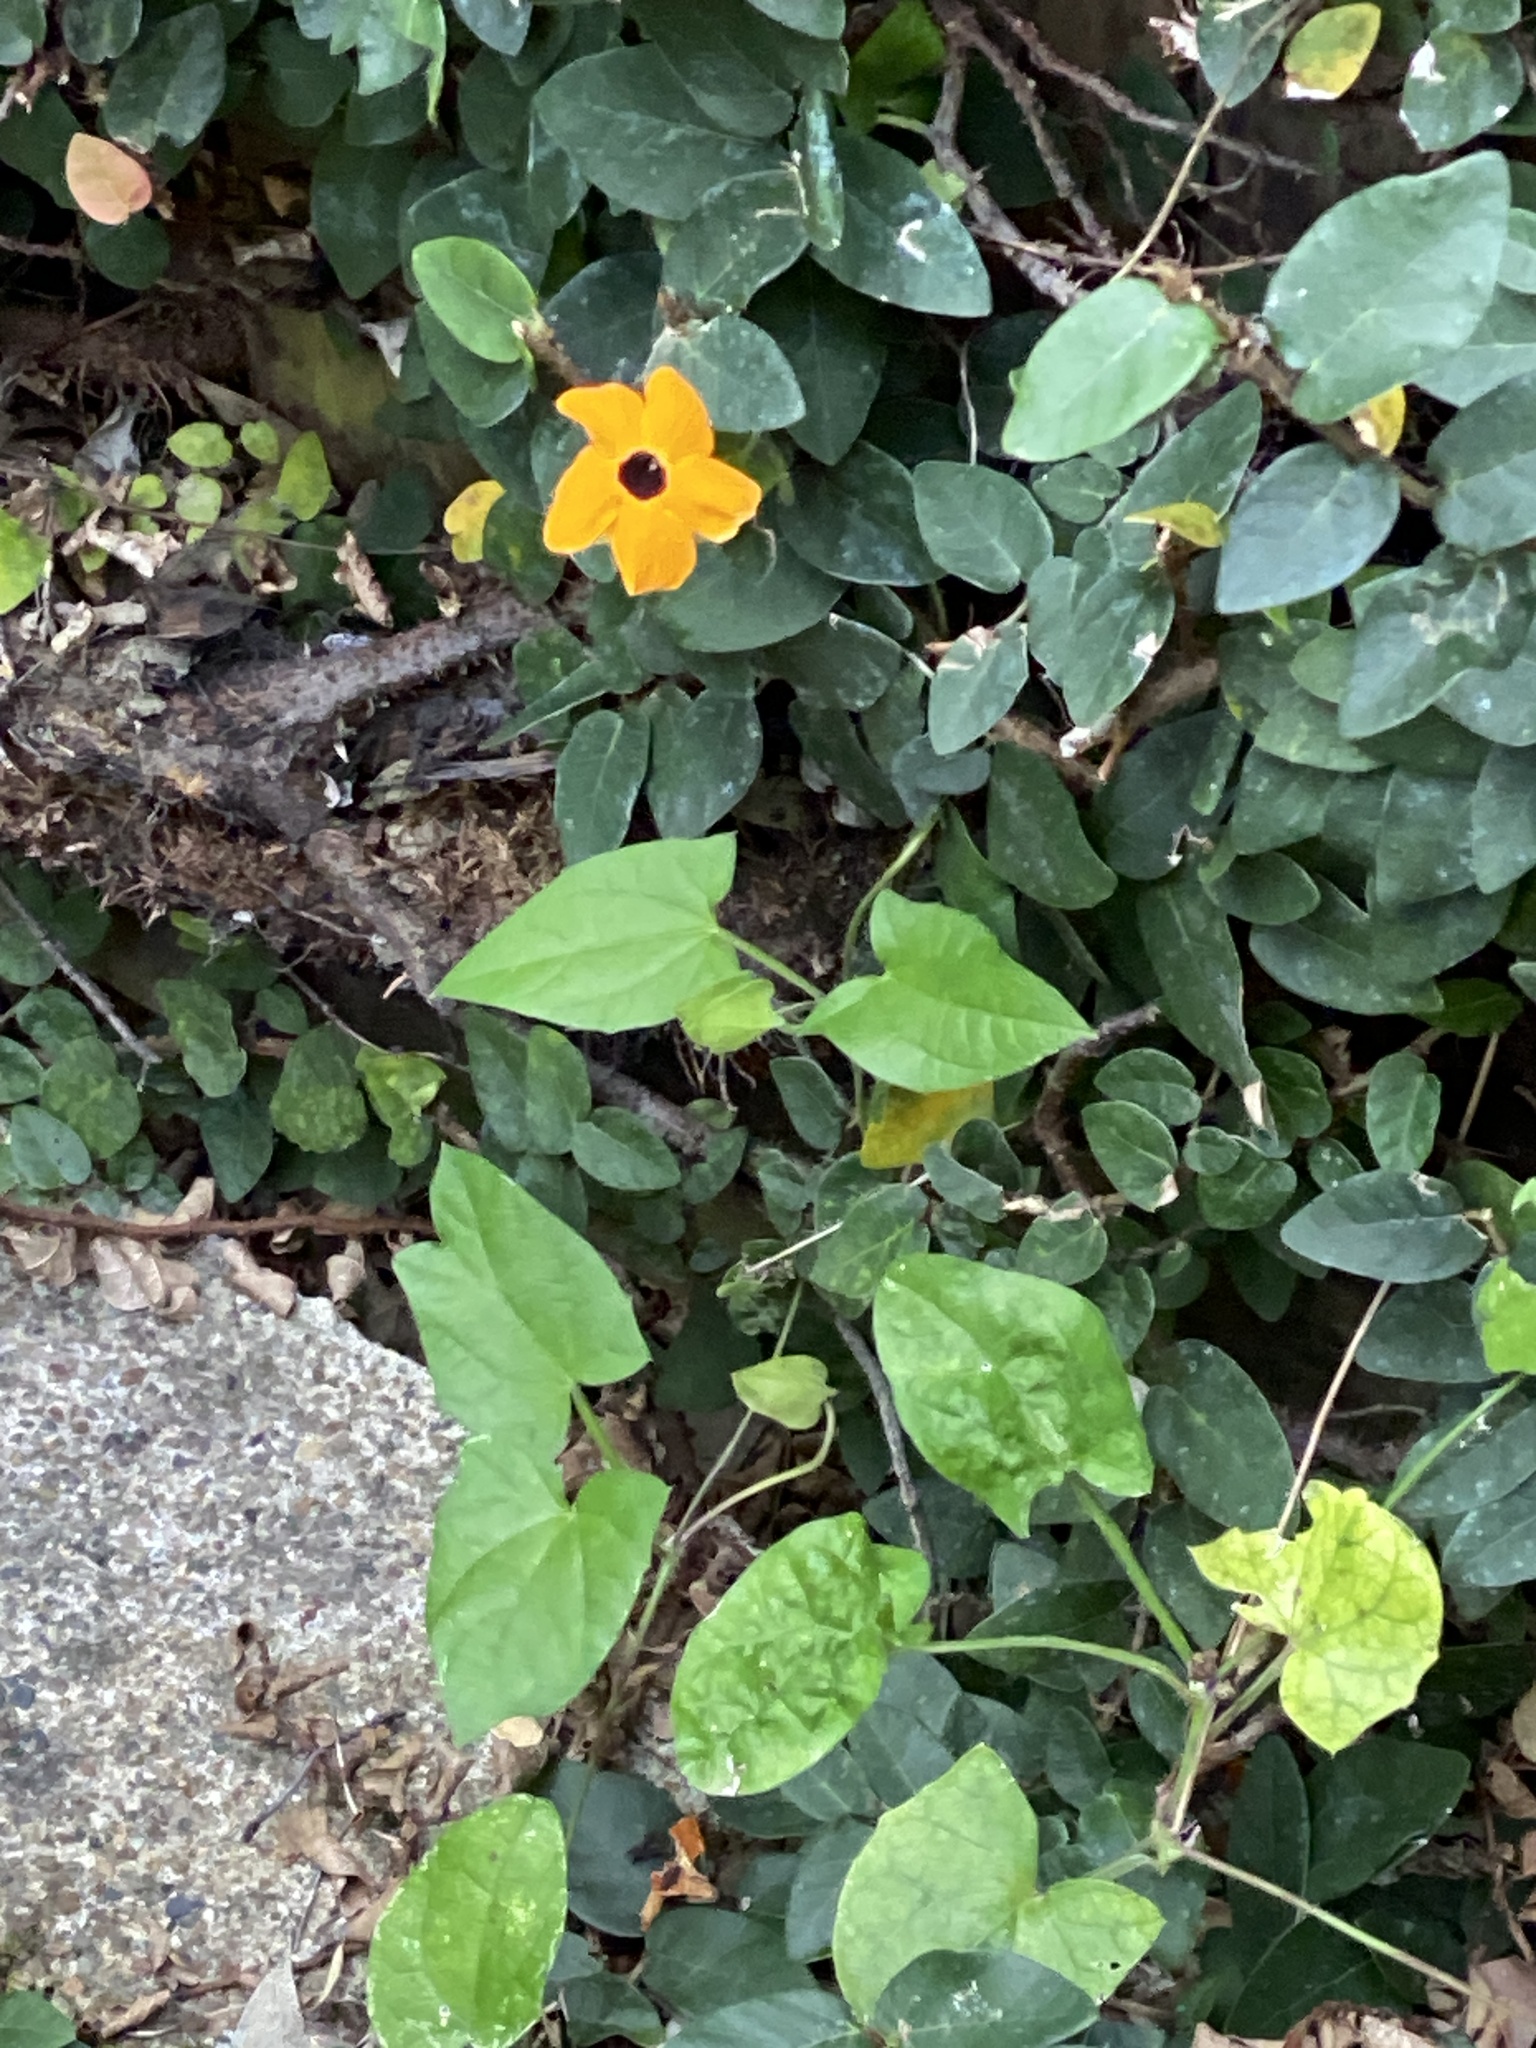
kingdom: Plantae
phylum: Tracheophyta
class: Magnoliopsida
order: Lamiales
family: Acanthaceae
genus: Thunbergia
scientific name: Thunbergia alata
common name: Blackeyed susan vine
